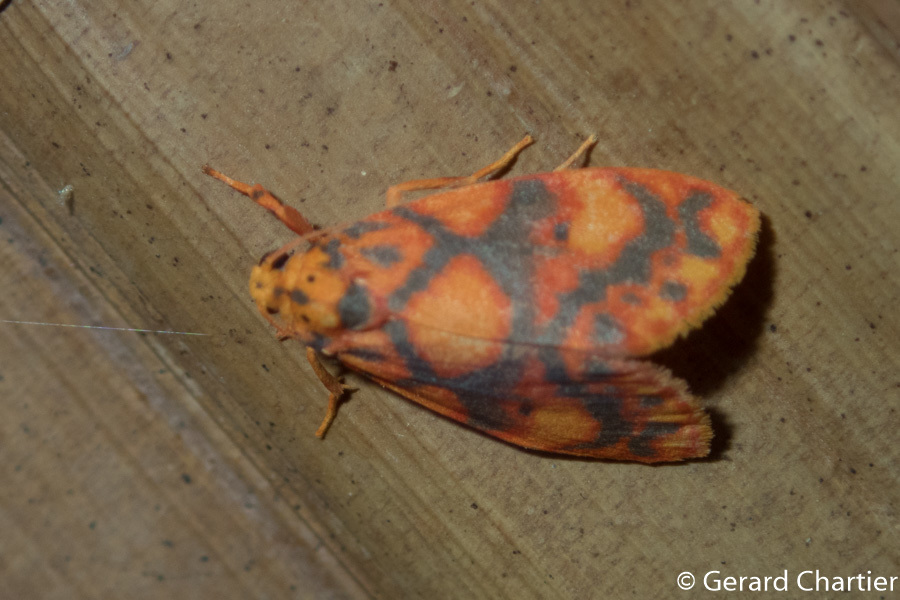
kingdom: Animalia
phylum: Arthropoda
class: Insecta
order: Lepidoptera
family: Erebidae
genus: Nanarsine
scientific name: Nanarsine porphyrea
